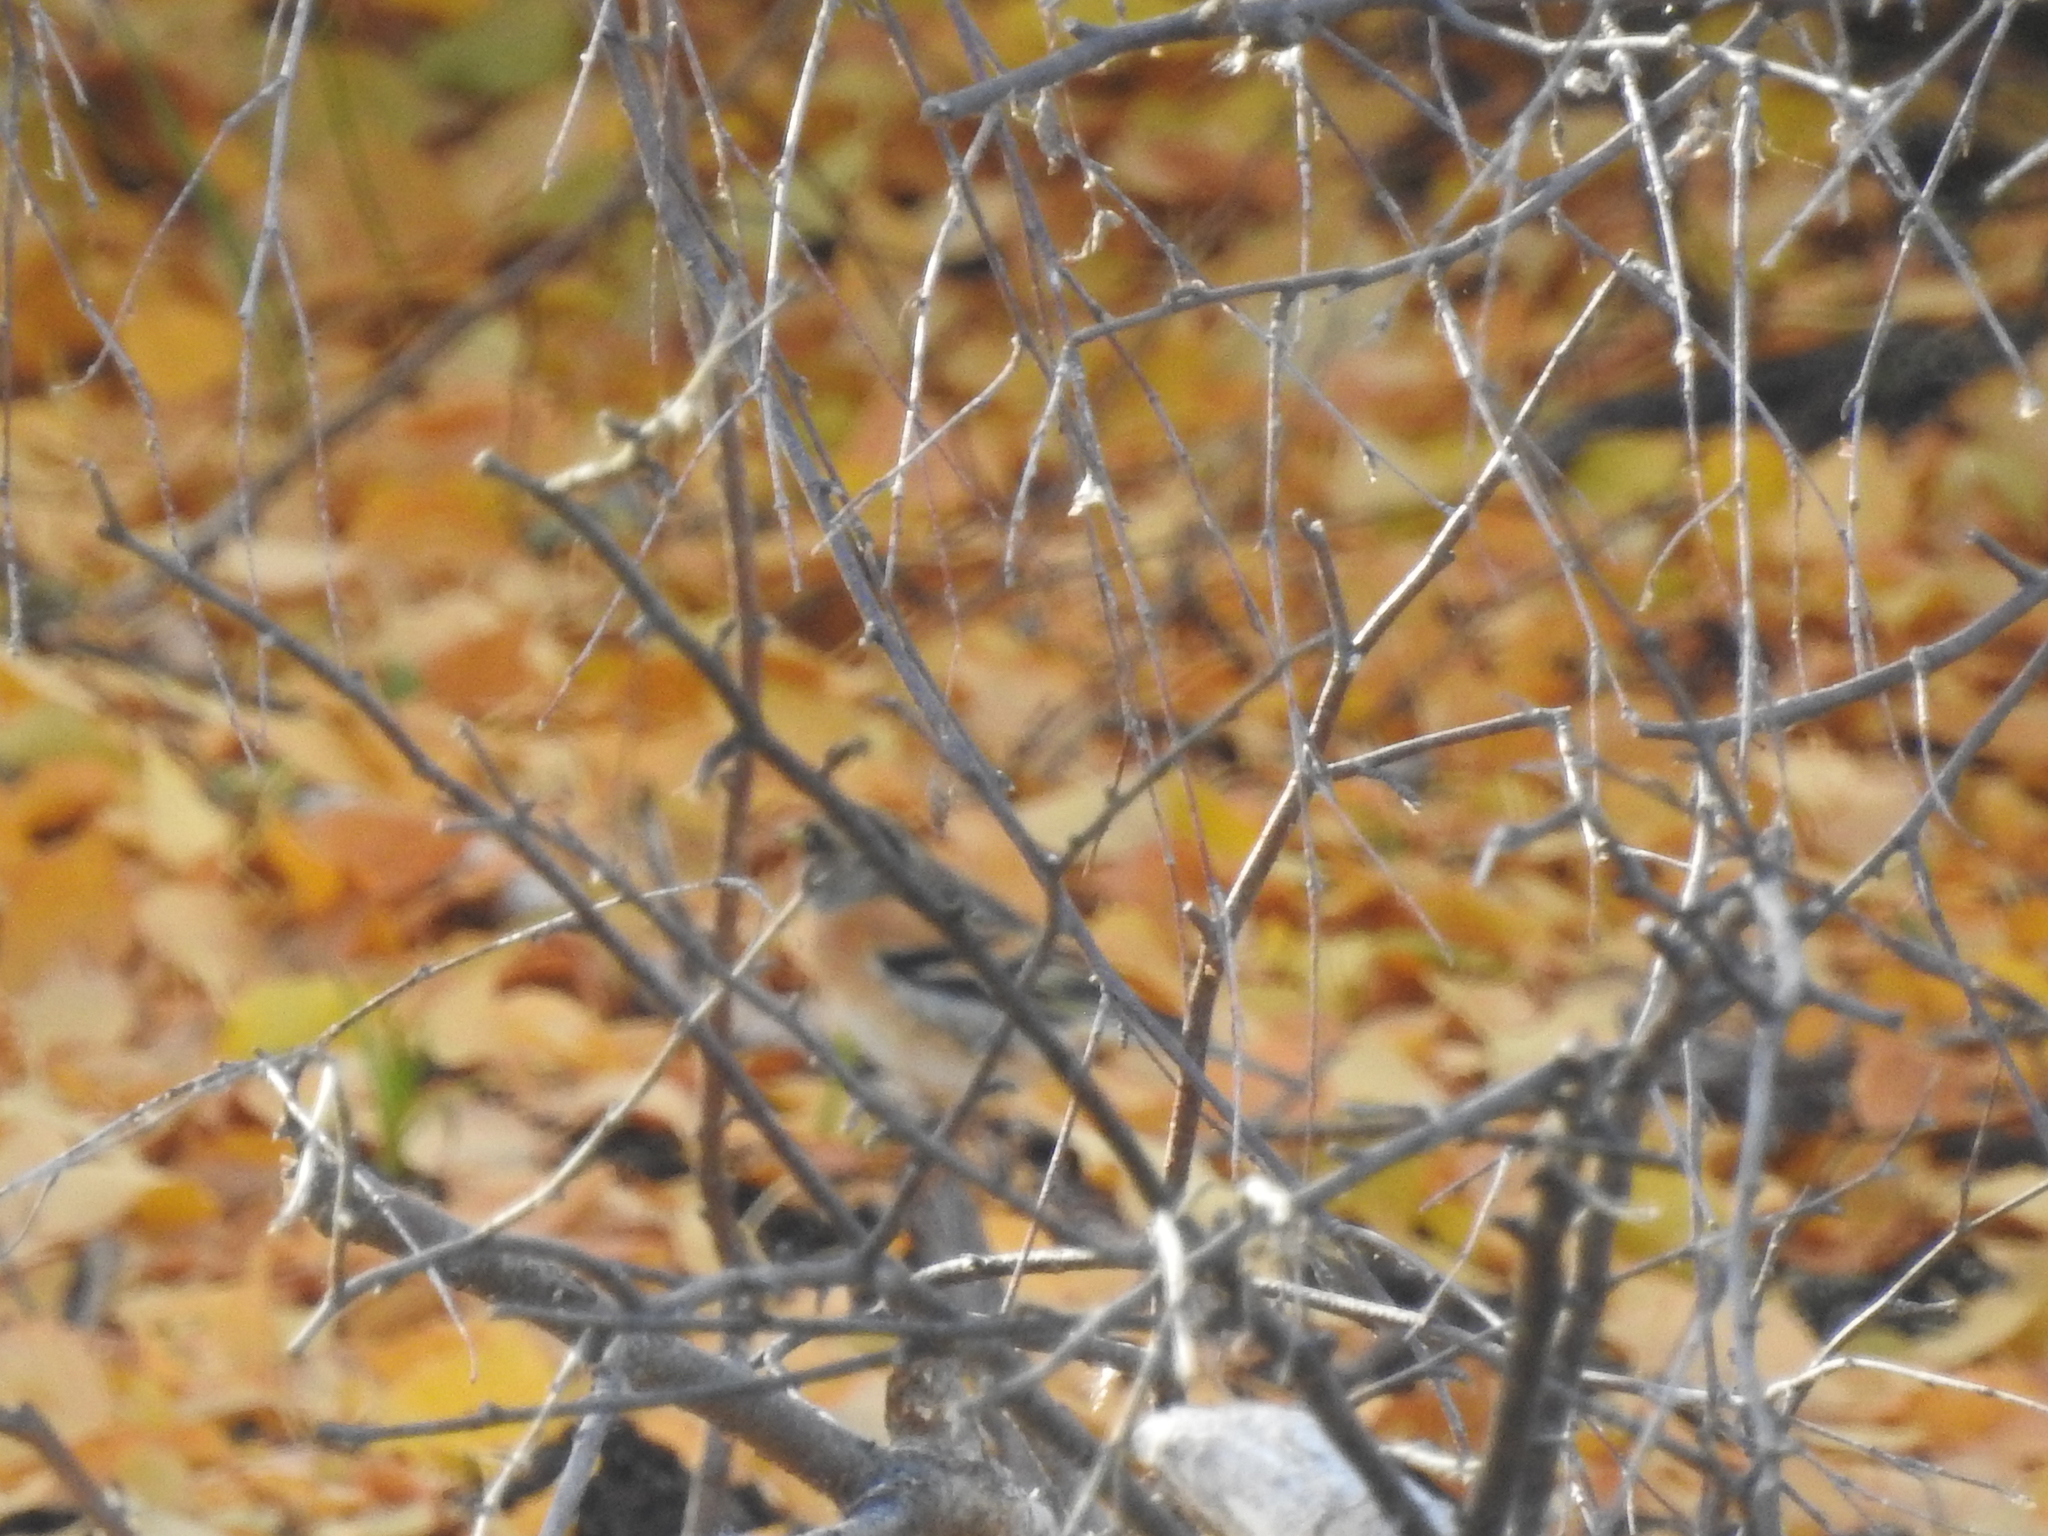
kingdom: Animalia
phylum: Chordata
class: Aves
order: Passeriformes
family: Fringillidae
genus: Fringilla
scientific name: Fringilla montifringilla
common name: Brambling
